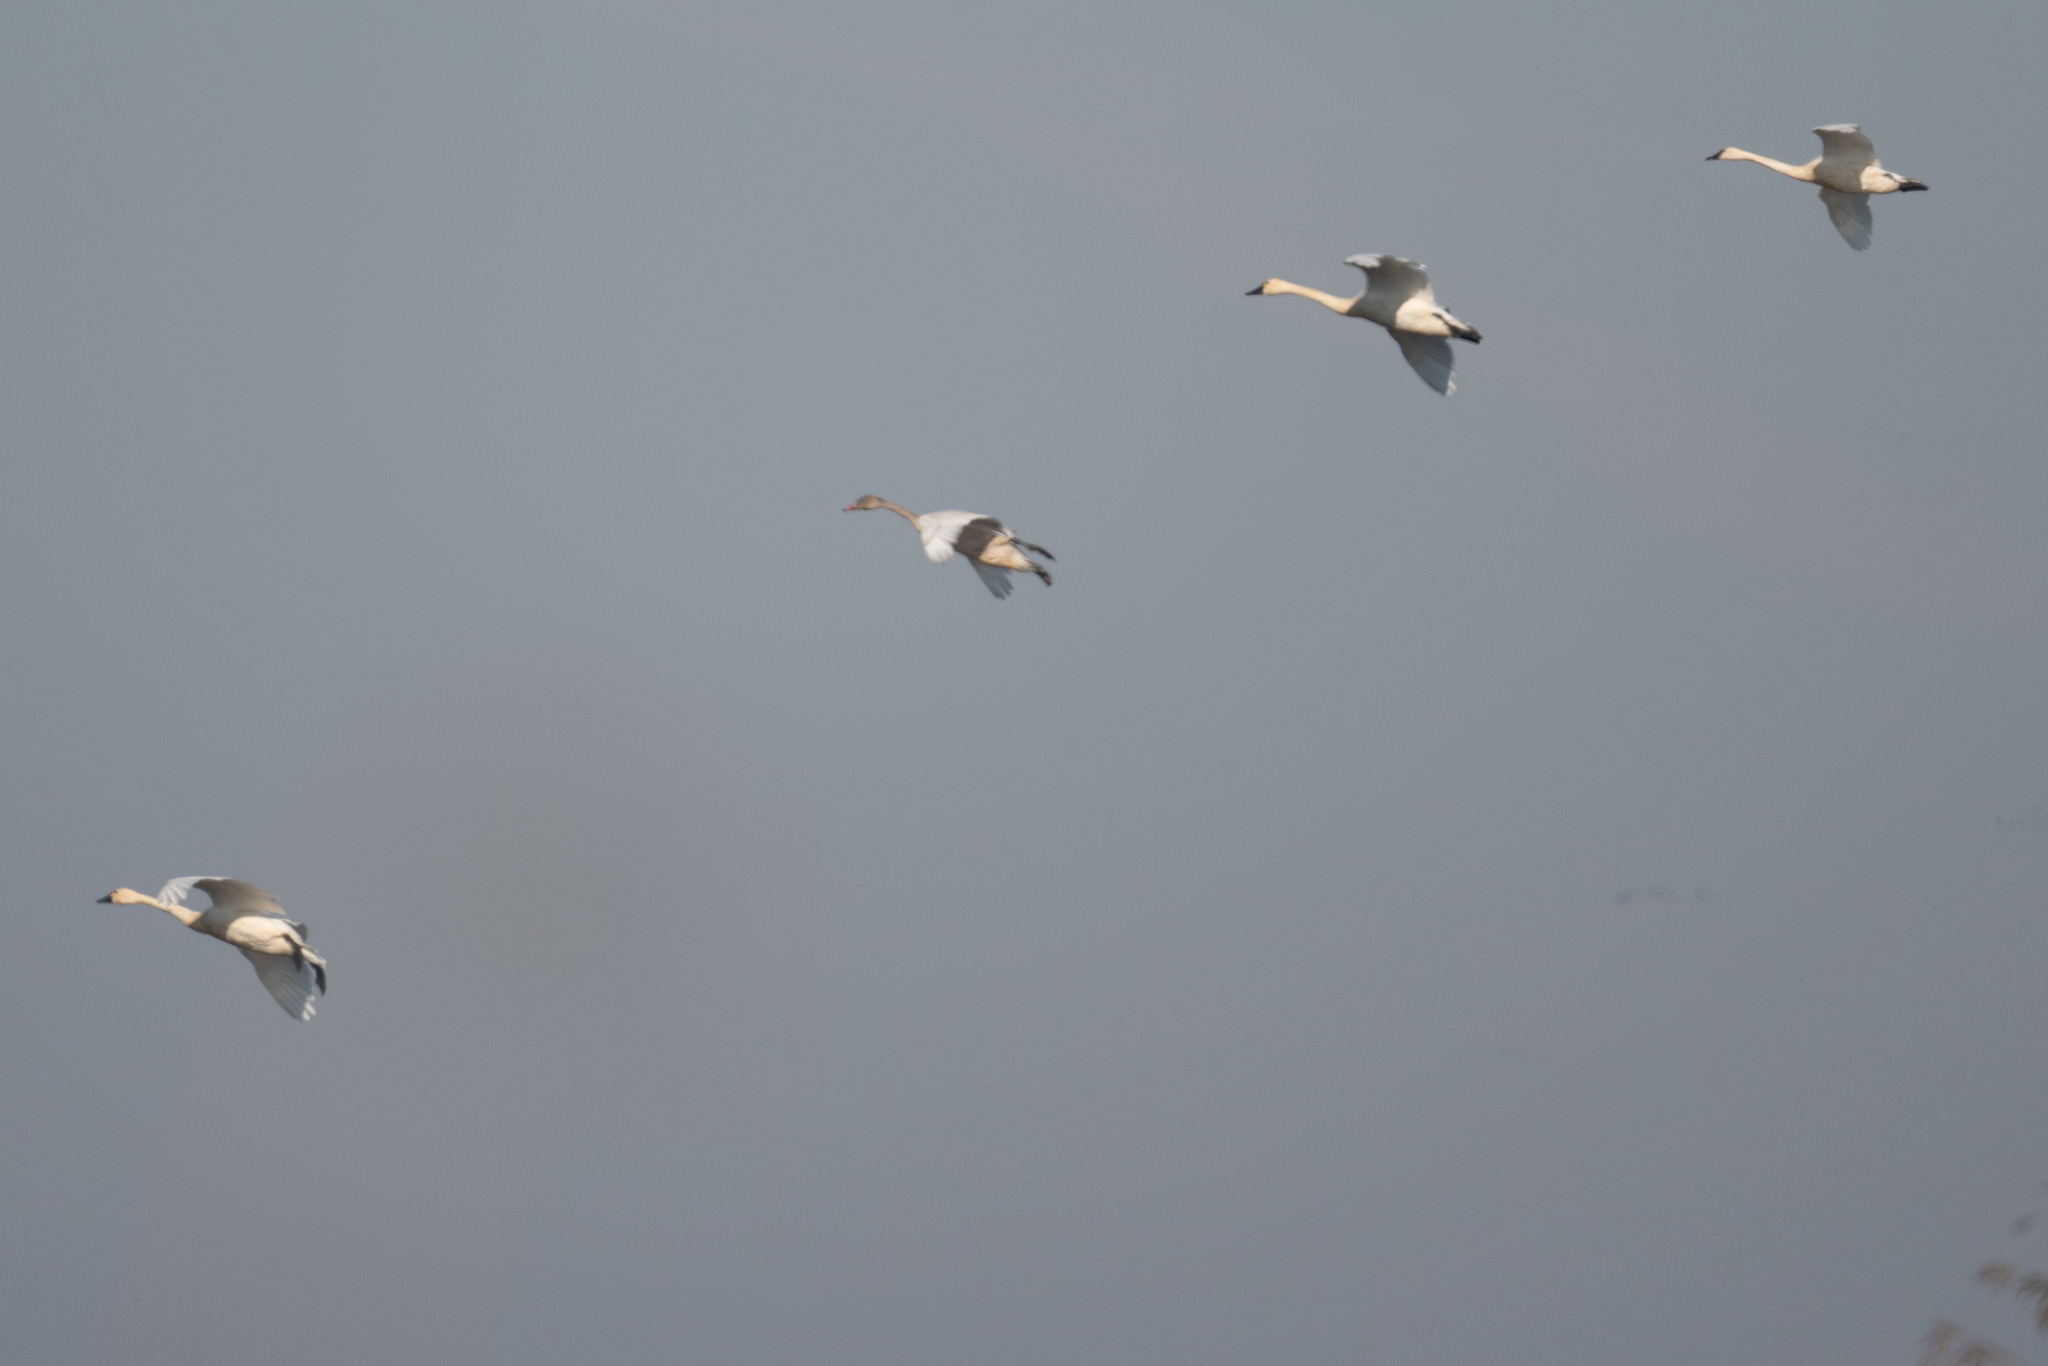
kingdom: Animalia
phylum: Chordata
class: Aves
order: Anseriformes
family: Anatidae
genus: Cygnus
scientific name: Cygnus columbianus
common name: Tundra swan
